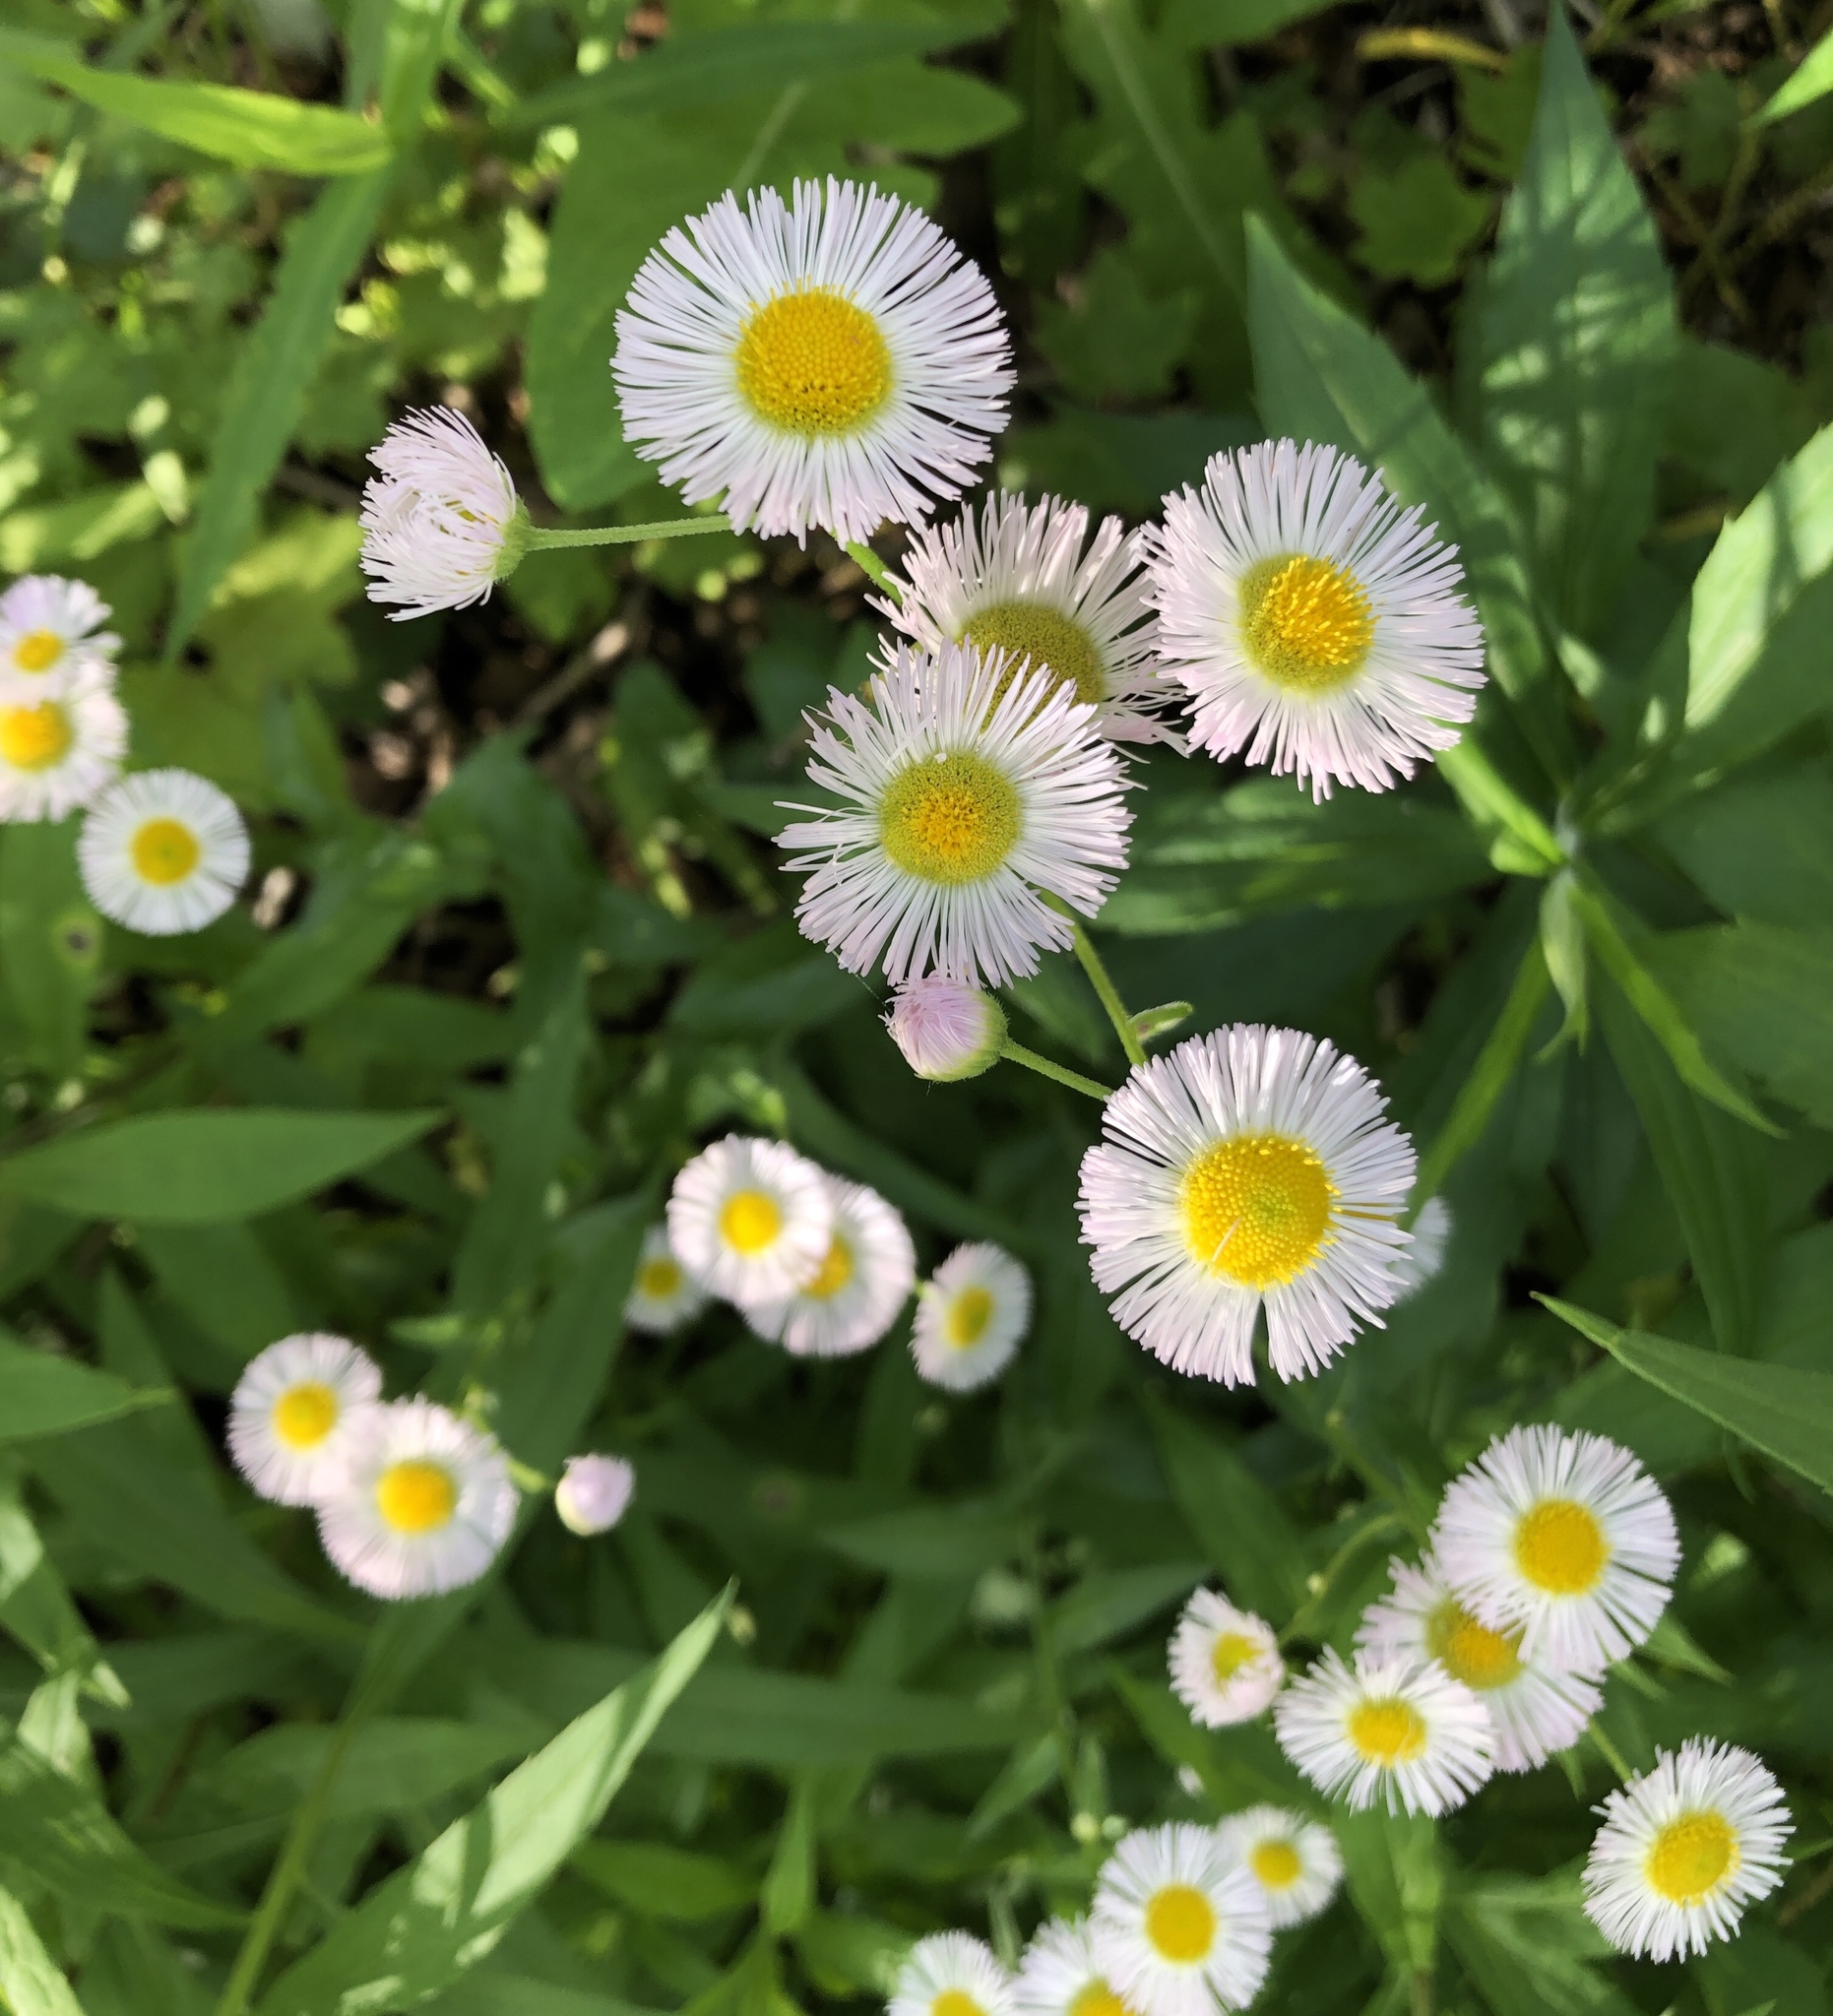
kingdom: Plantae
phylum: Tracheophyta
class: Magnoliopsida
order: Asterales
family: Asteraceae
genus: Erigeron
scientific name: Erigeron philadelphicus
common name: Robin's-plantain
